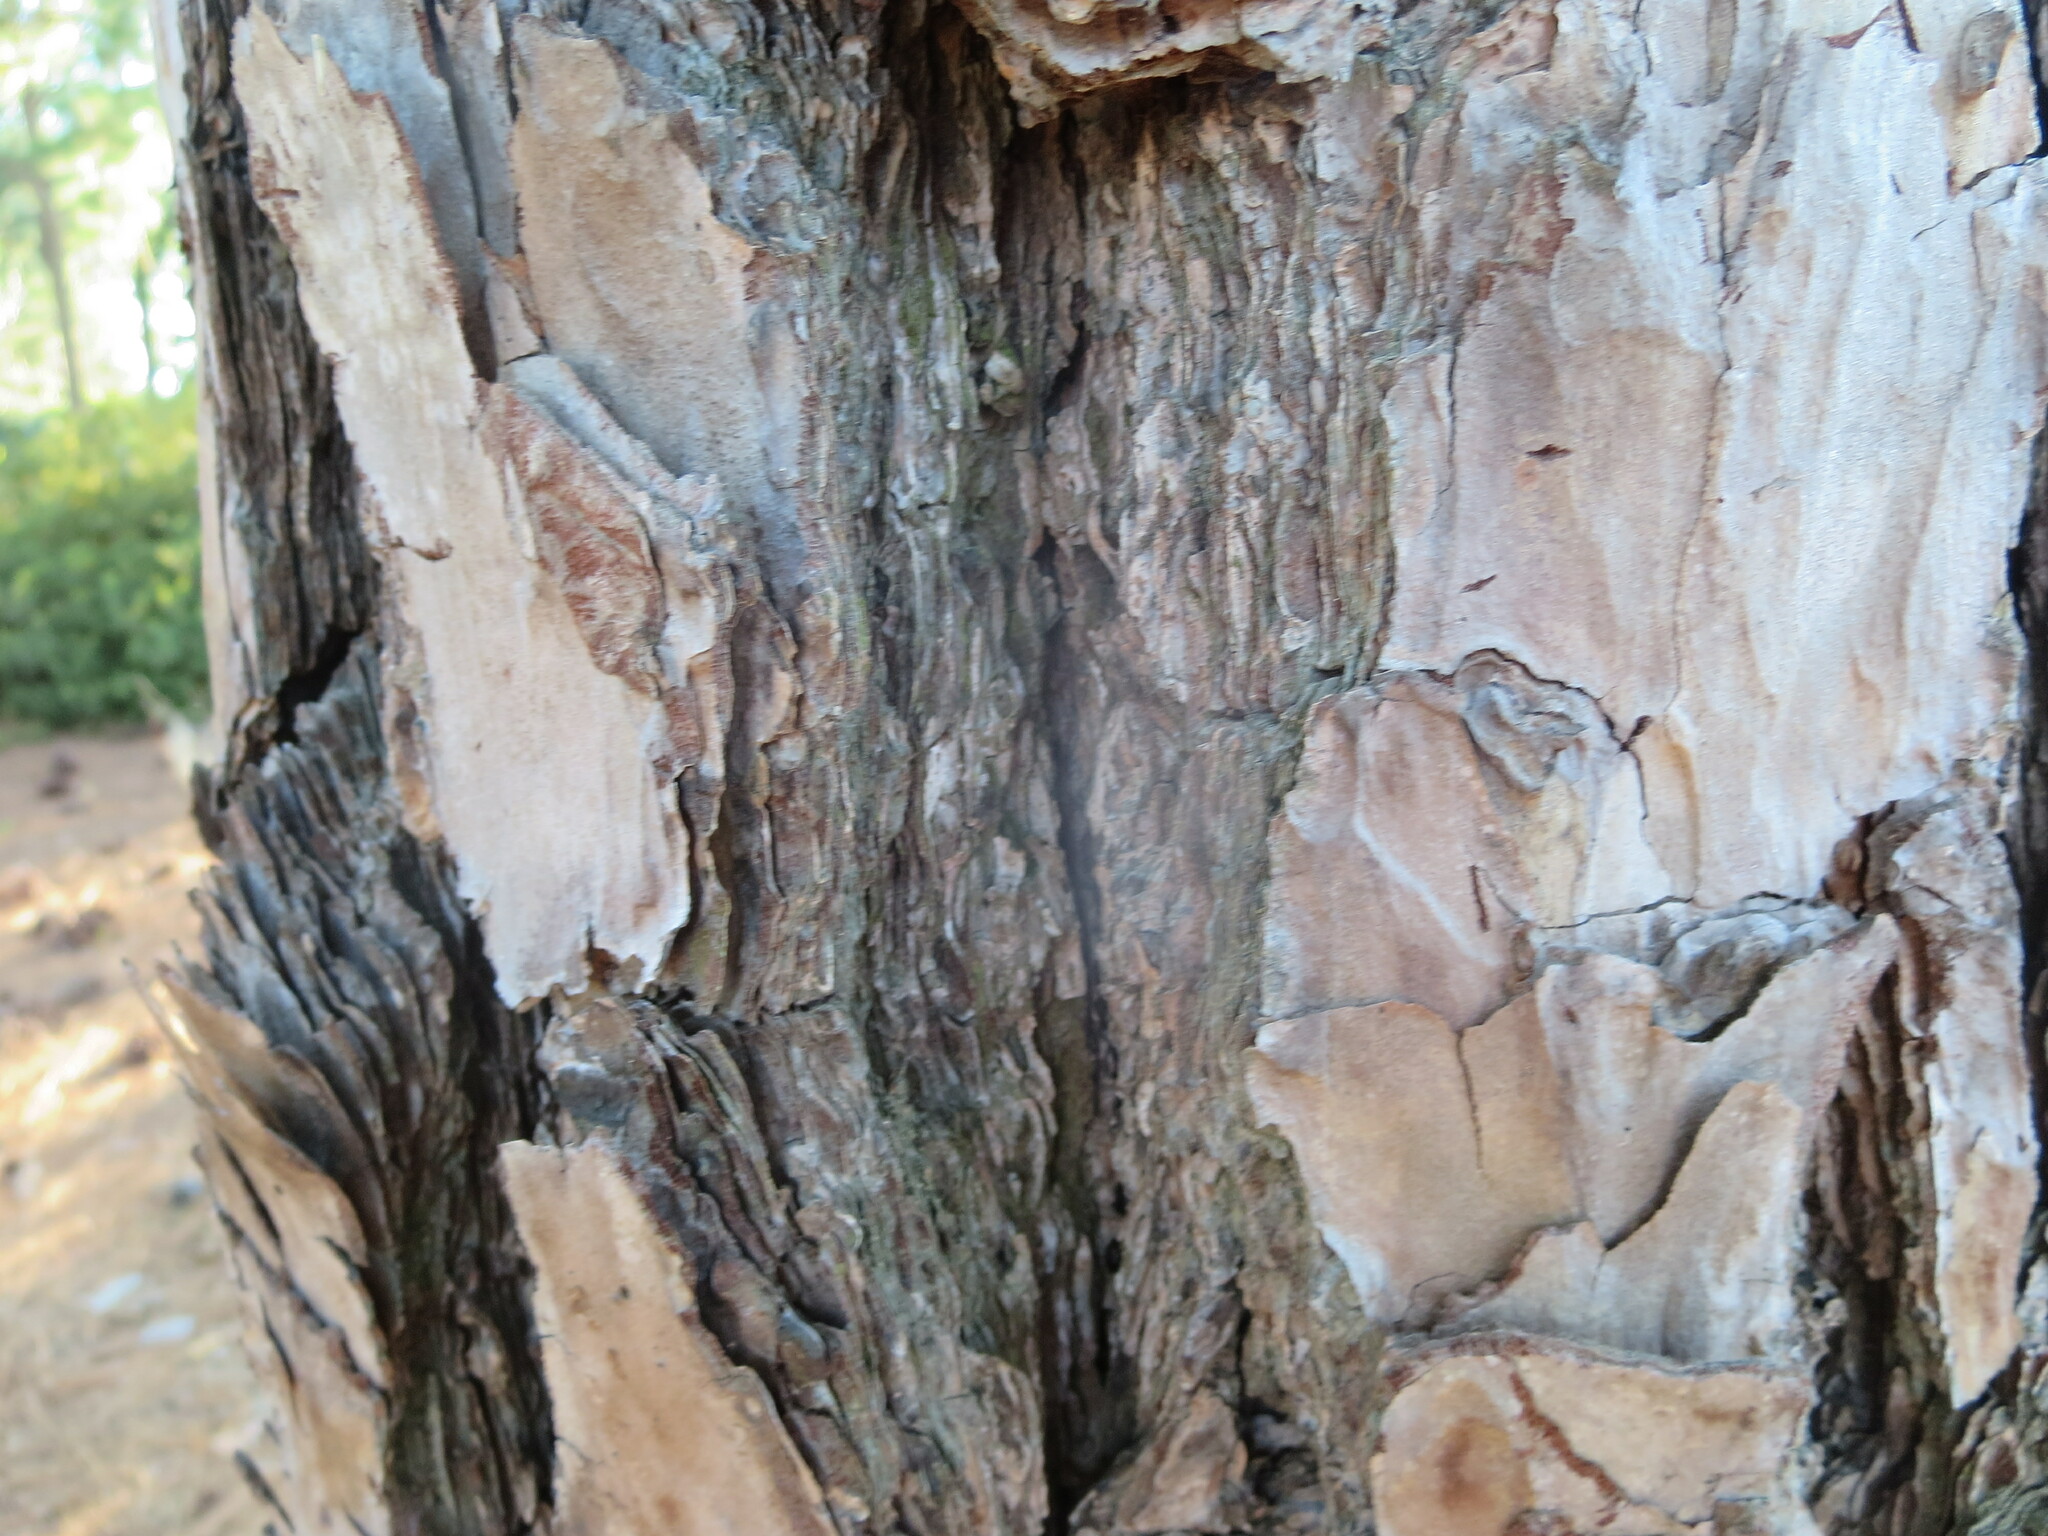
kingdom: Plantae
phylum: Tracheophyta
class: Pinopsida
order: Pinales
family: Pinaceae
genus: Pinus
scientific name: Pinus echinata
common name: Shortleaf pine
